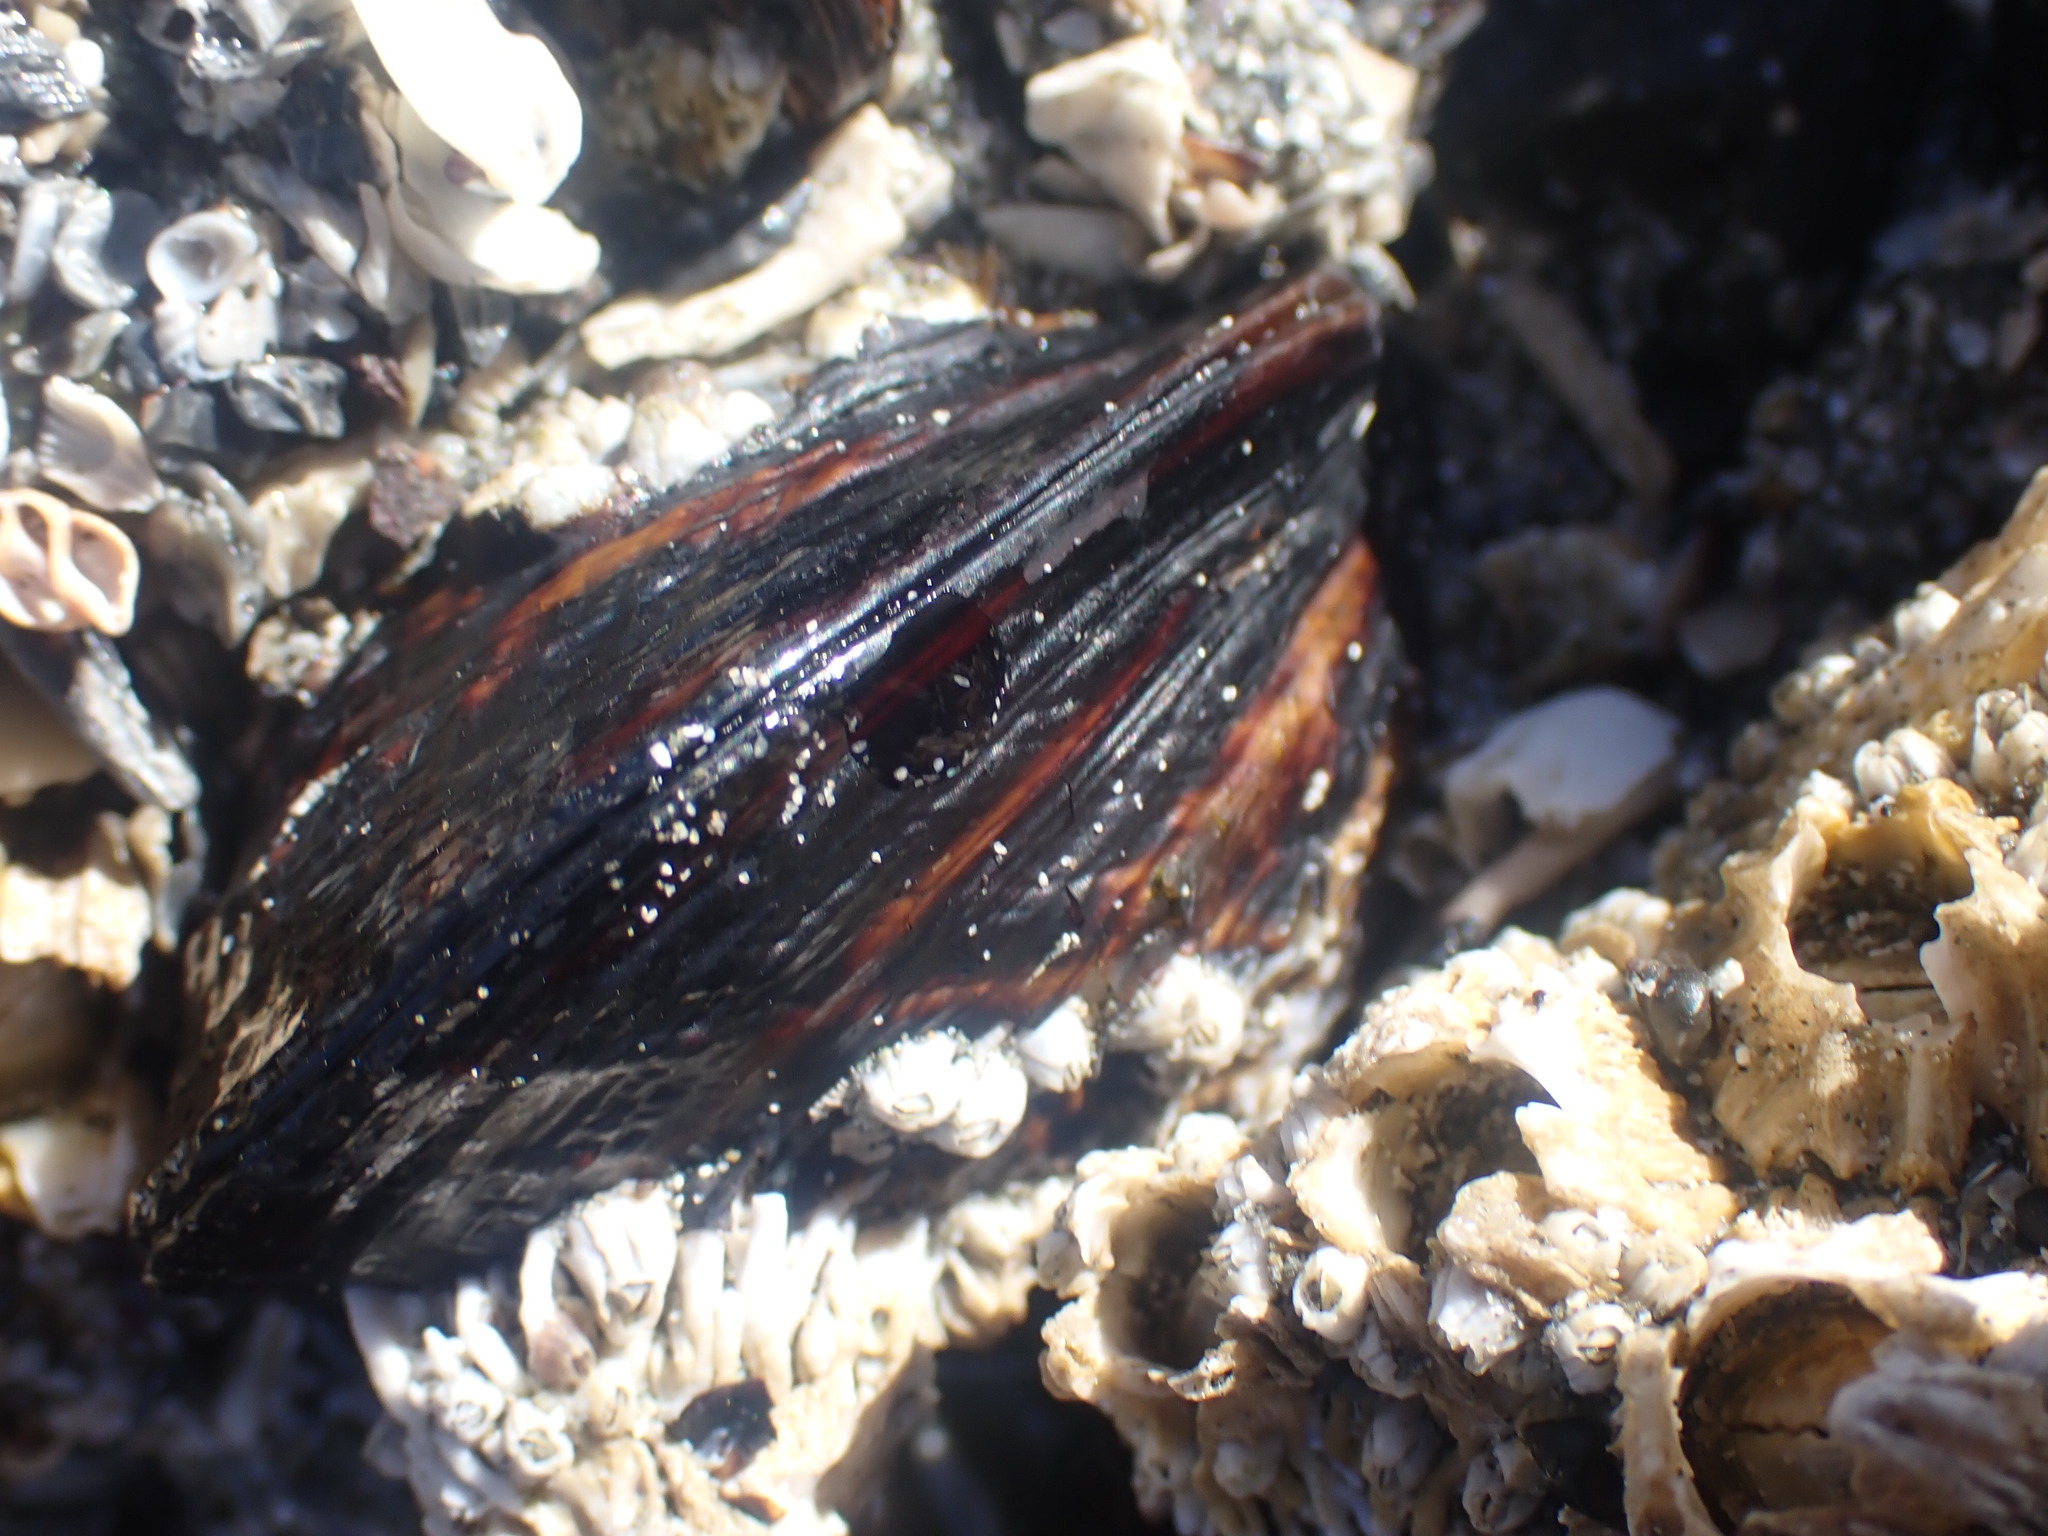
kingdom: Animalia
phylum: Mollusca
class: Bivalvia
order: Mytilida
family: Mytilidae
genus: Mytilus
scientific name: Mytilus californianus
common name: California mussel
